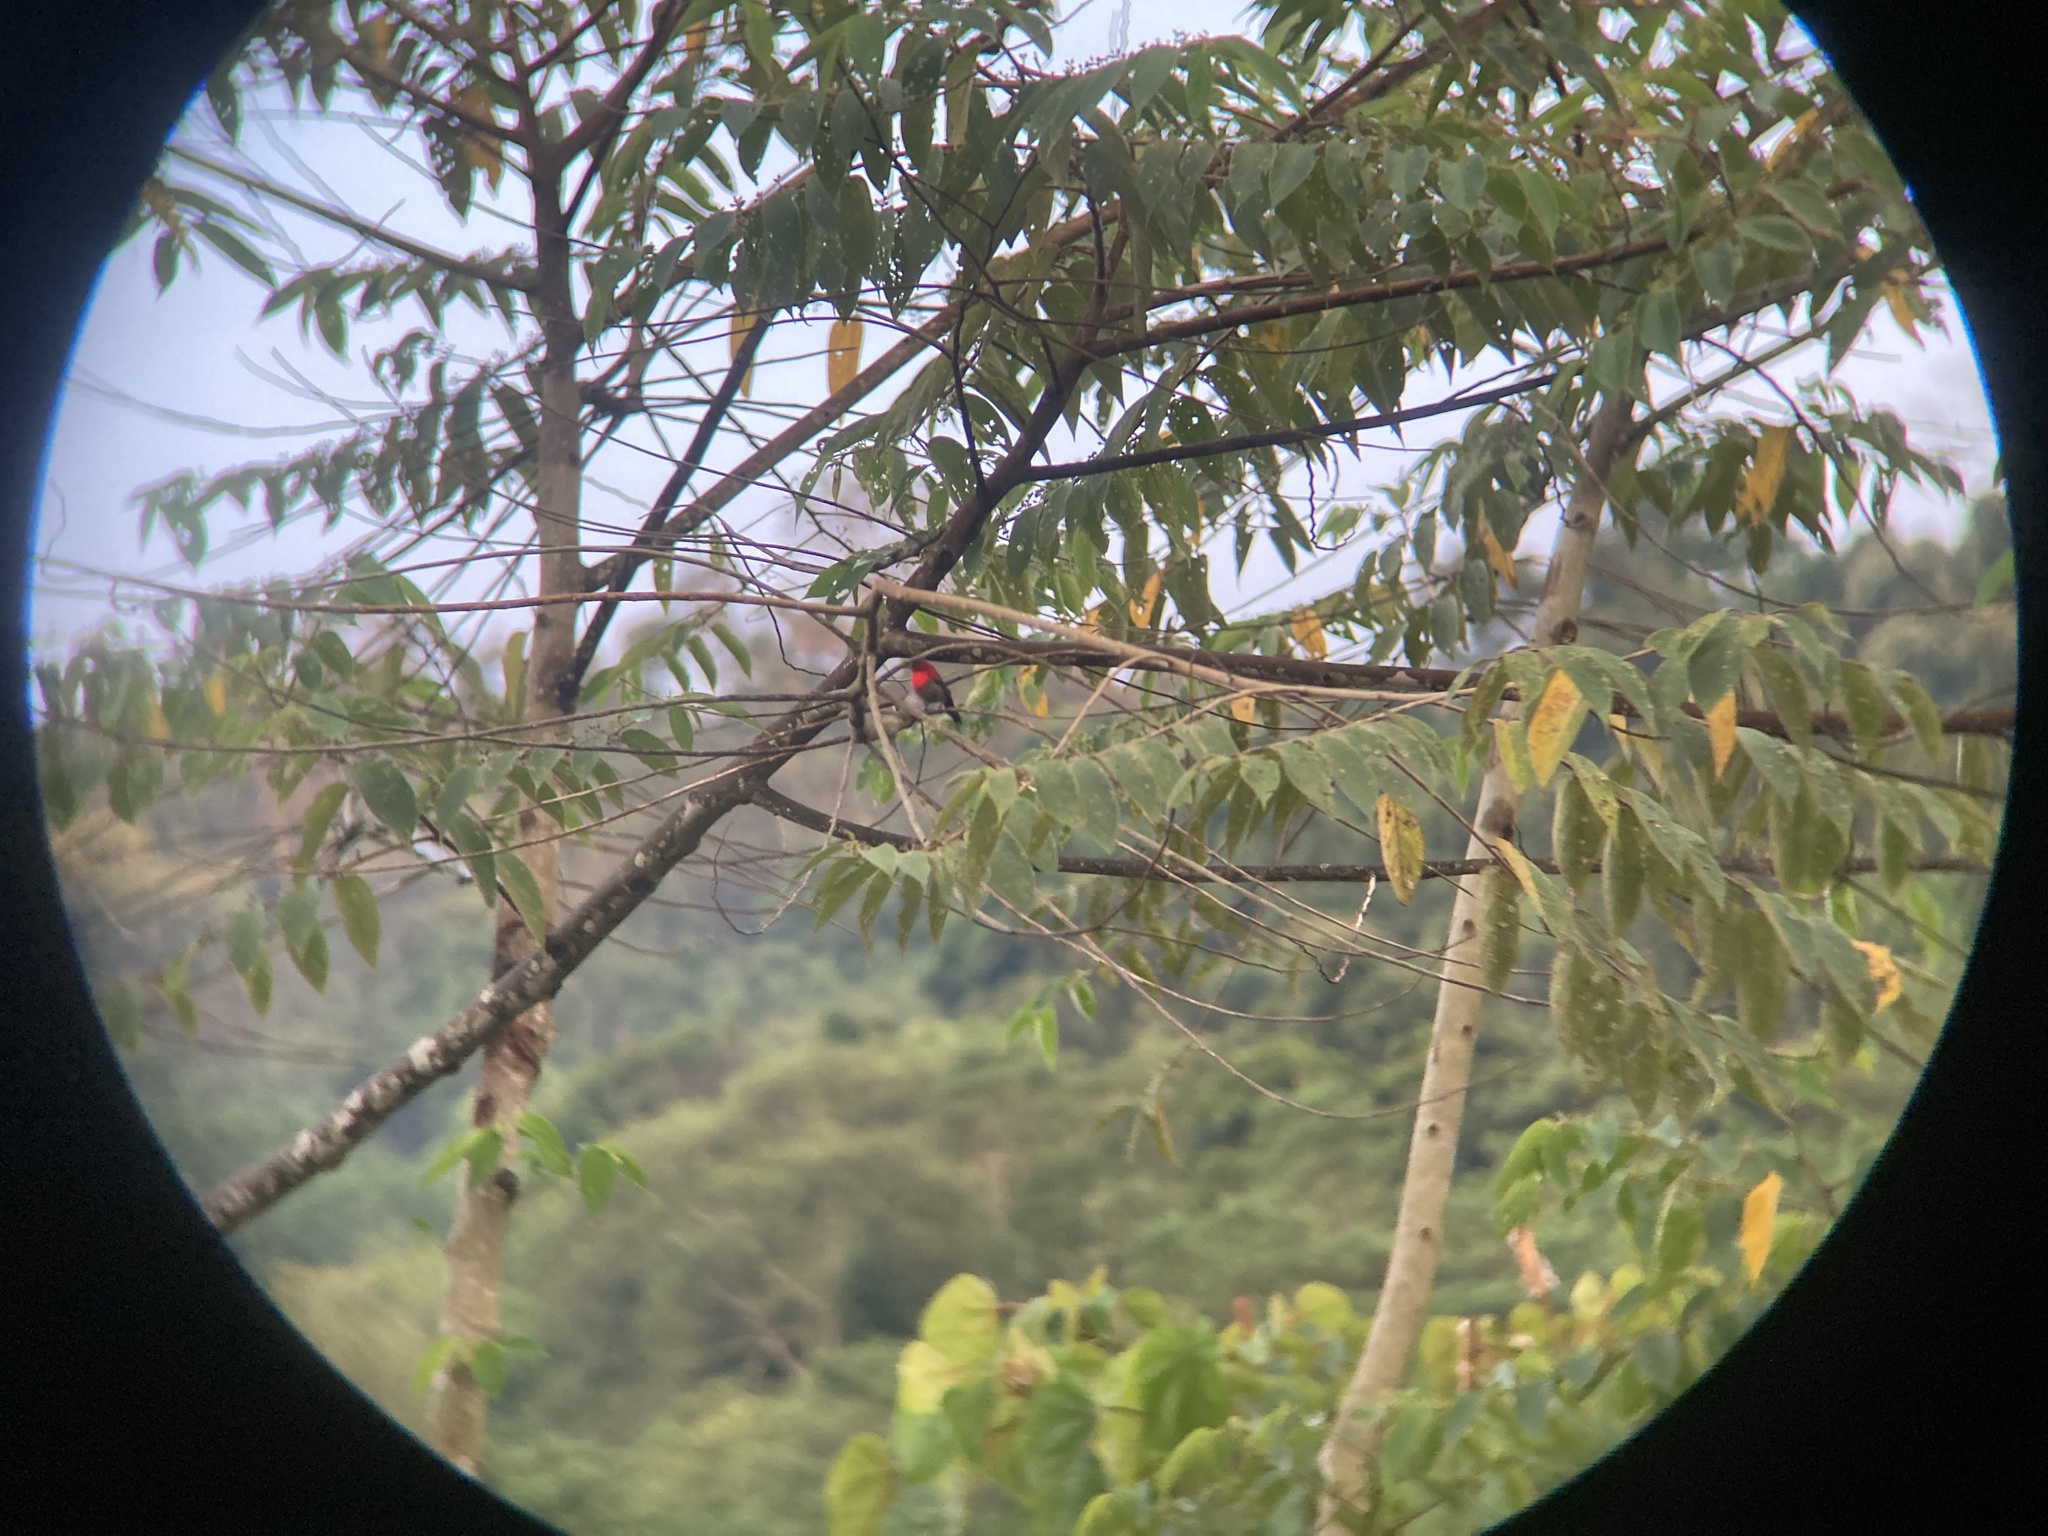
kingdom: Animalia
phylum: Chordata
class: Aves
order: Passeriformes
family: Nectariniidae
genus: Aethopyga
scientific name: Aethopyga temminckii
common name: Temminck's sunbird
